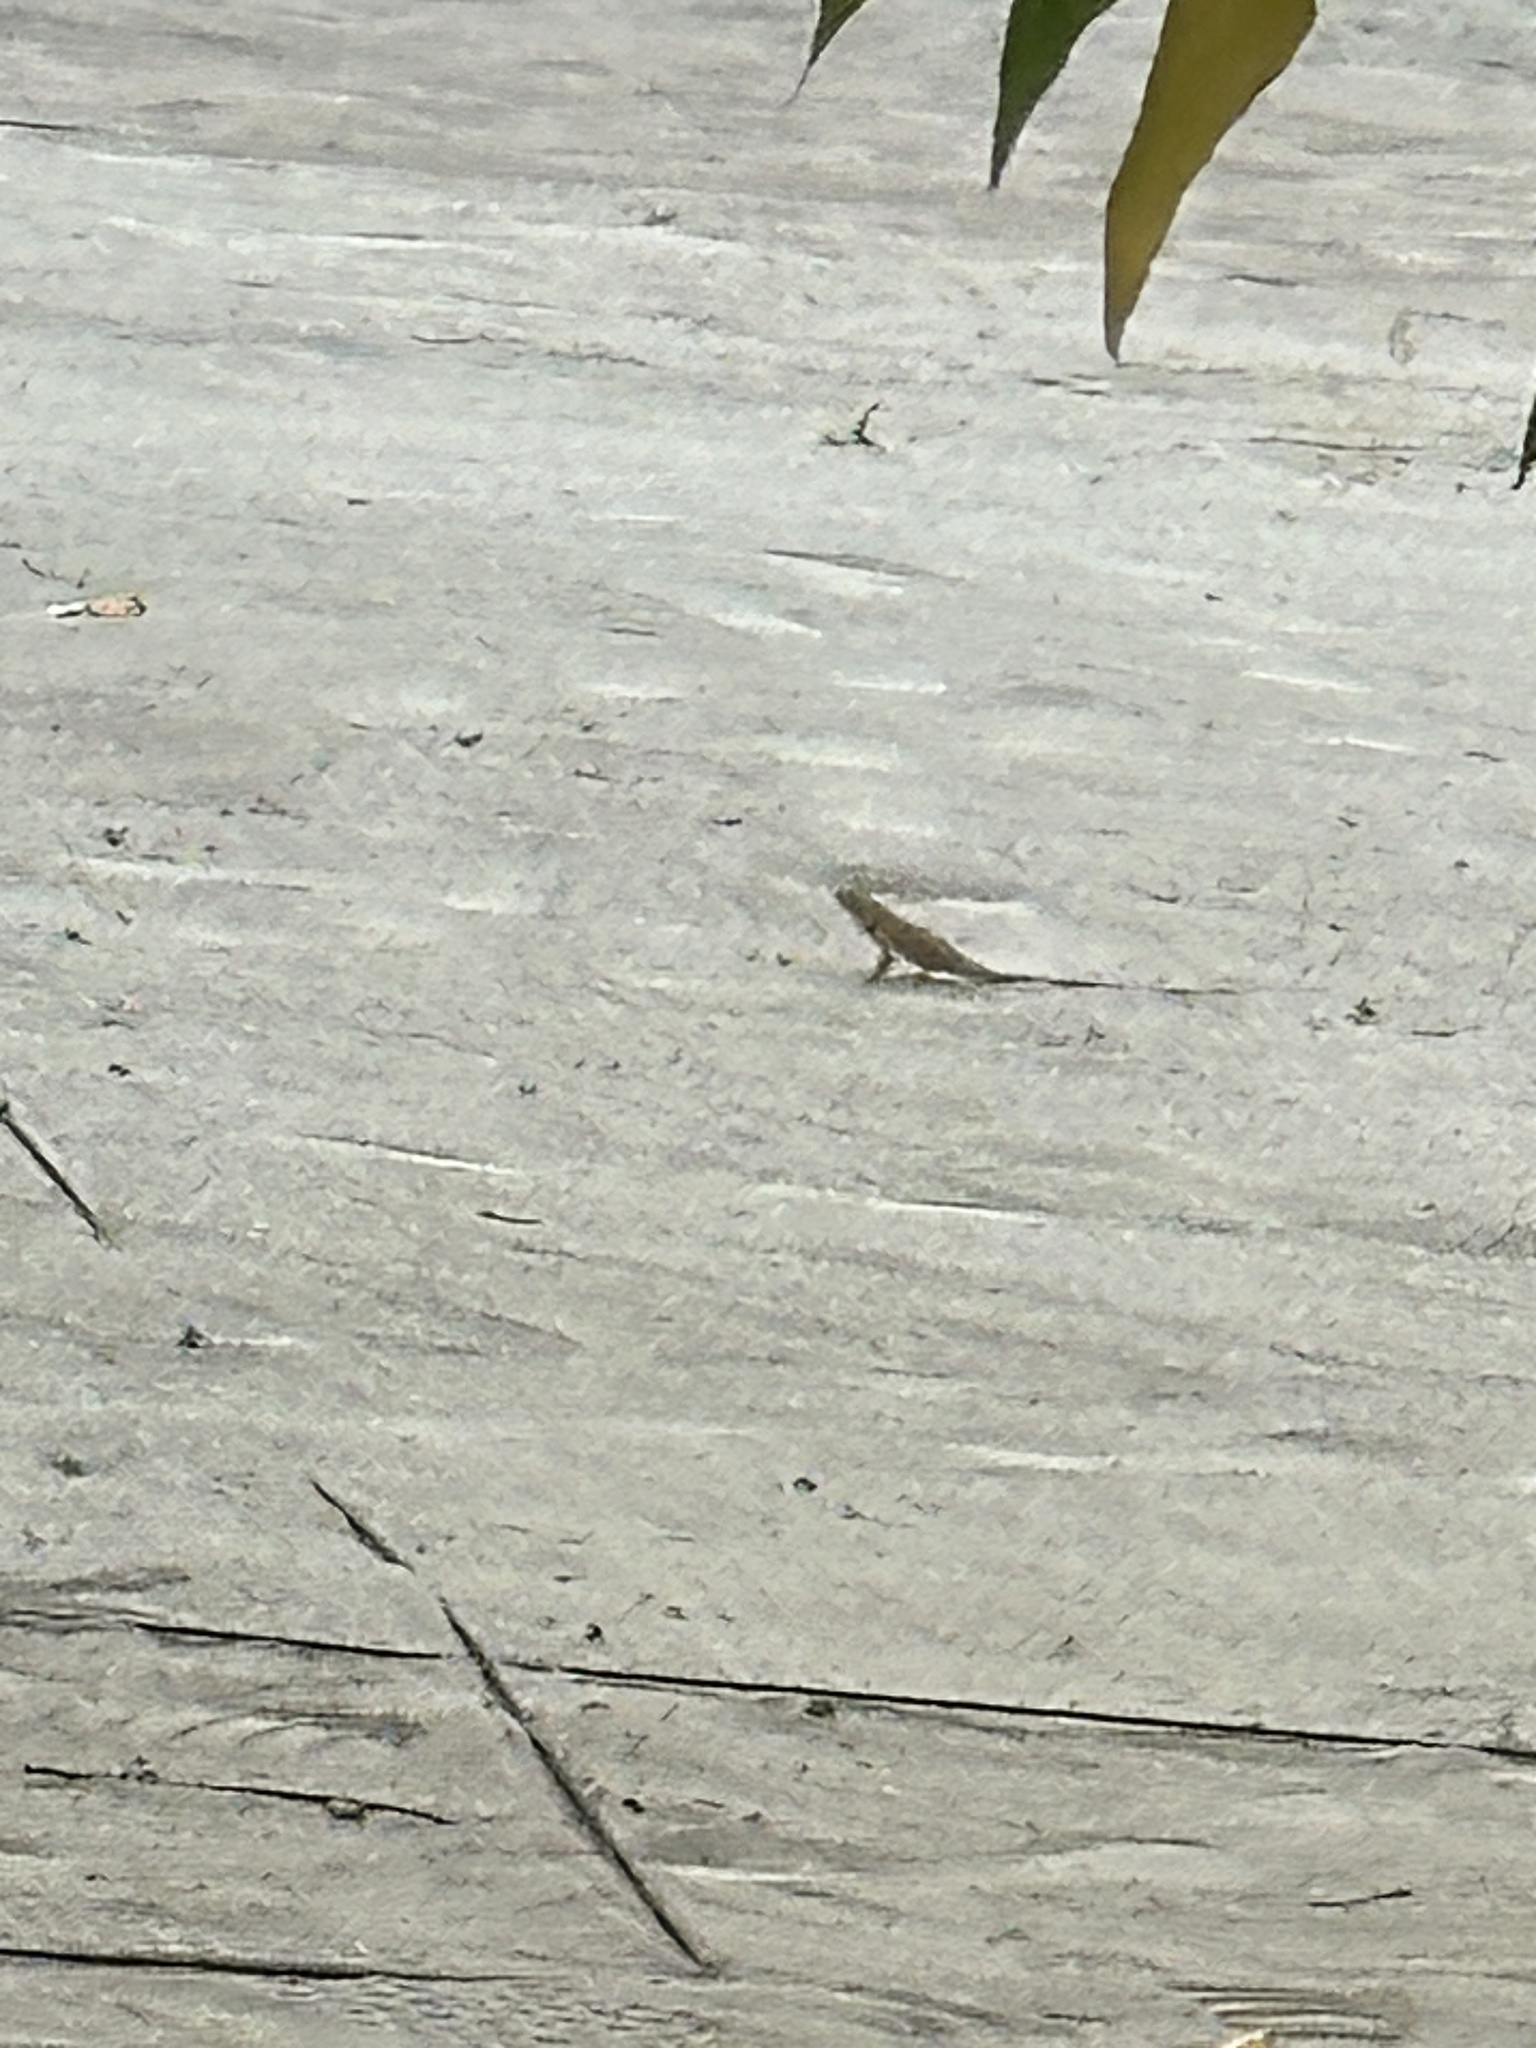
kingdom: Animalia
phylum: Chordata
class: Squamata
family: Agamidae
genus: Calotes
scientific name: Calotes versicolor
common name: Oriental garden lizard
